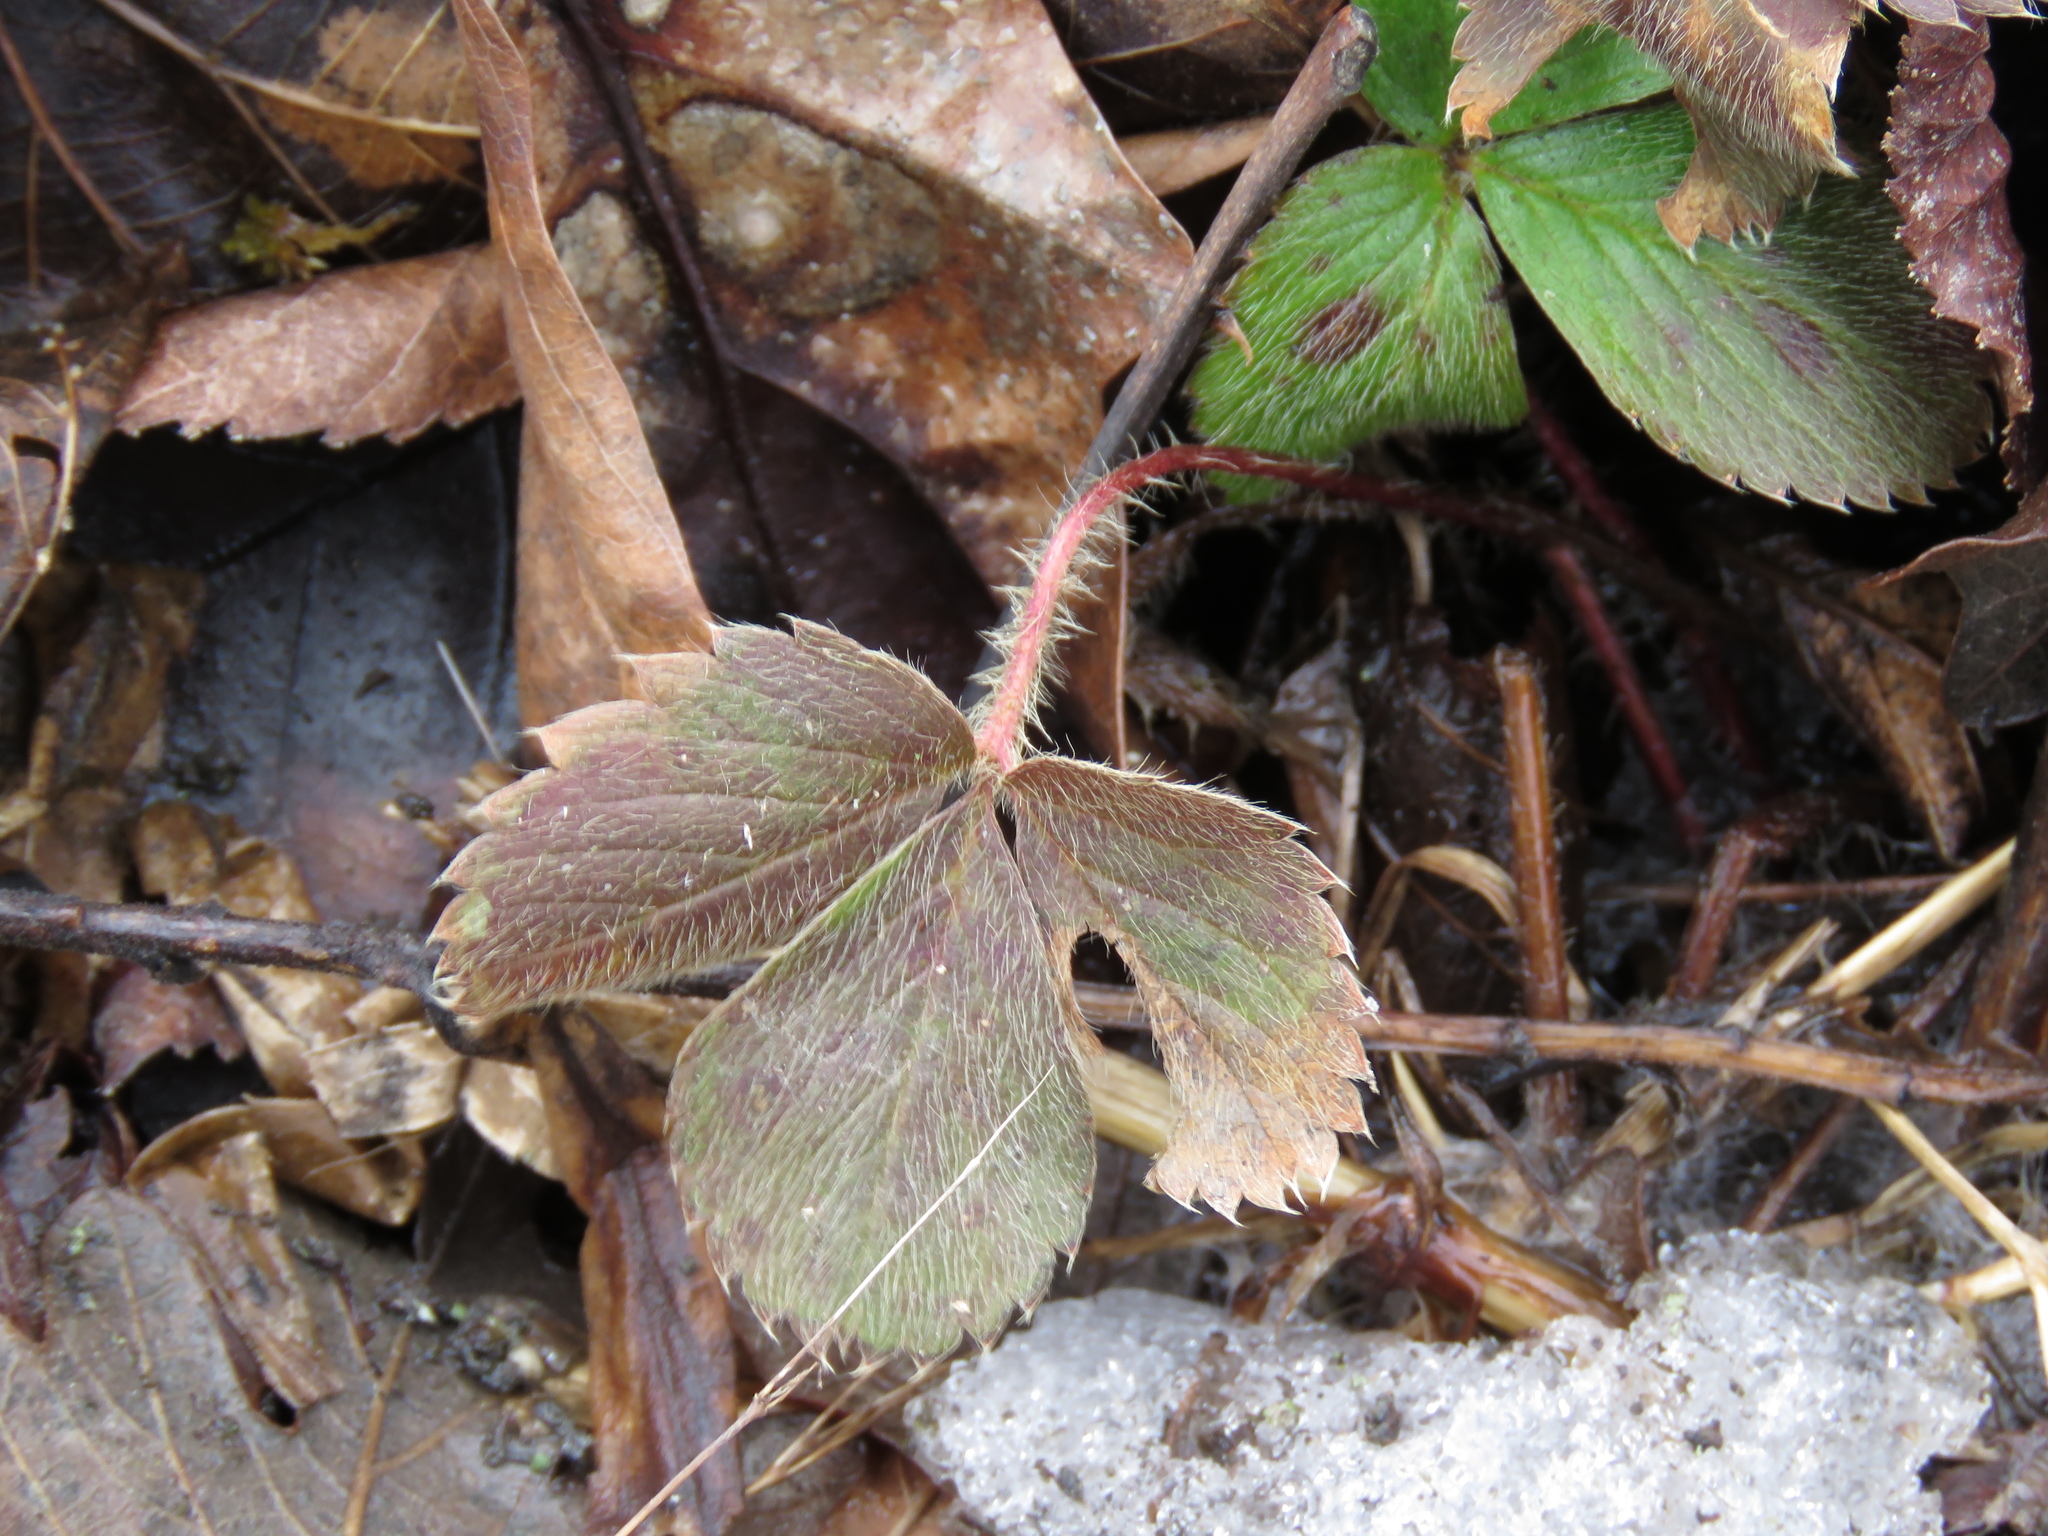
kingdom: Plantae
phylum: Tracheophyta
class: Magnoliopsida
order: Rosales
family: Rosaceae
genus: Fragaria
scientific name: Fragaria virginiana
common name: Thickleaved wild strawberry
